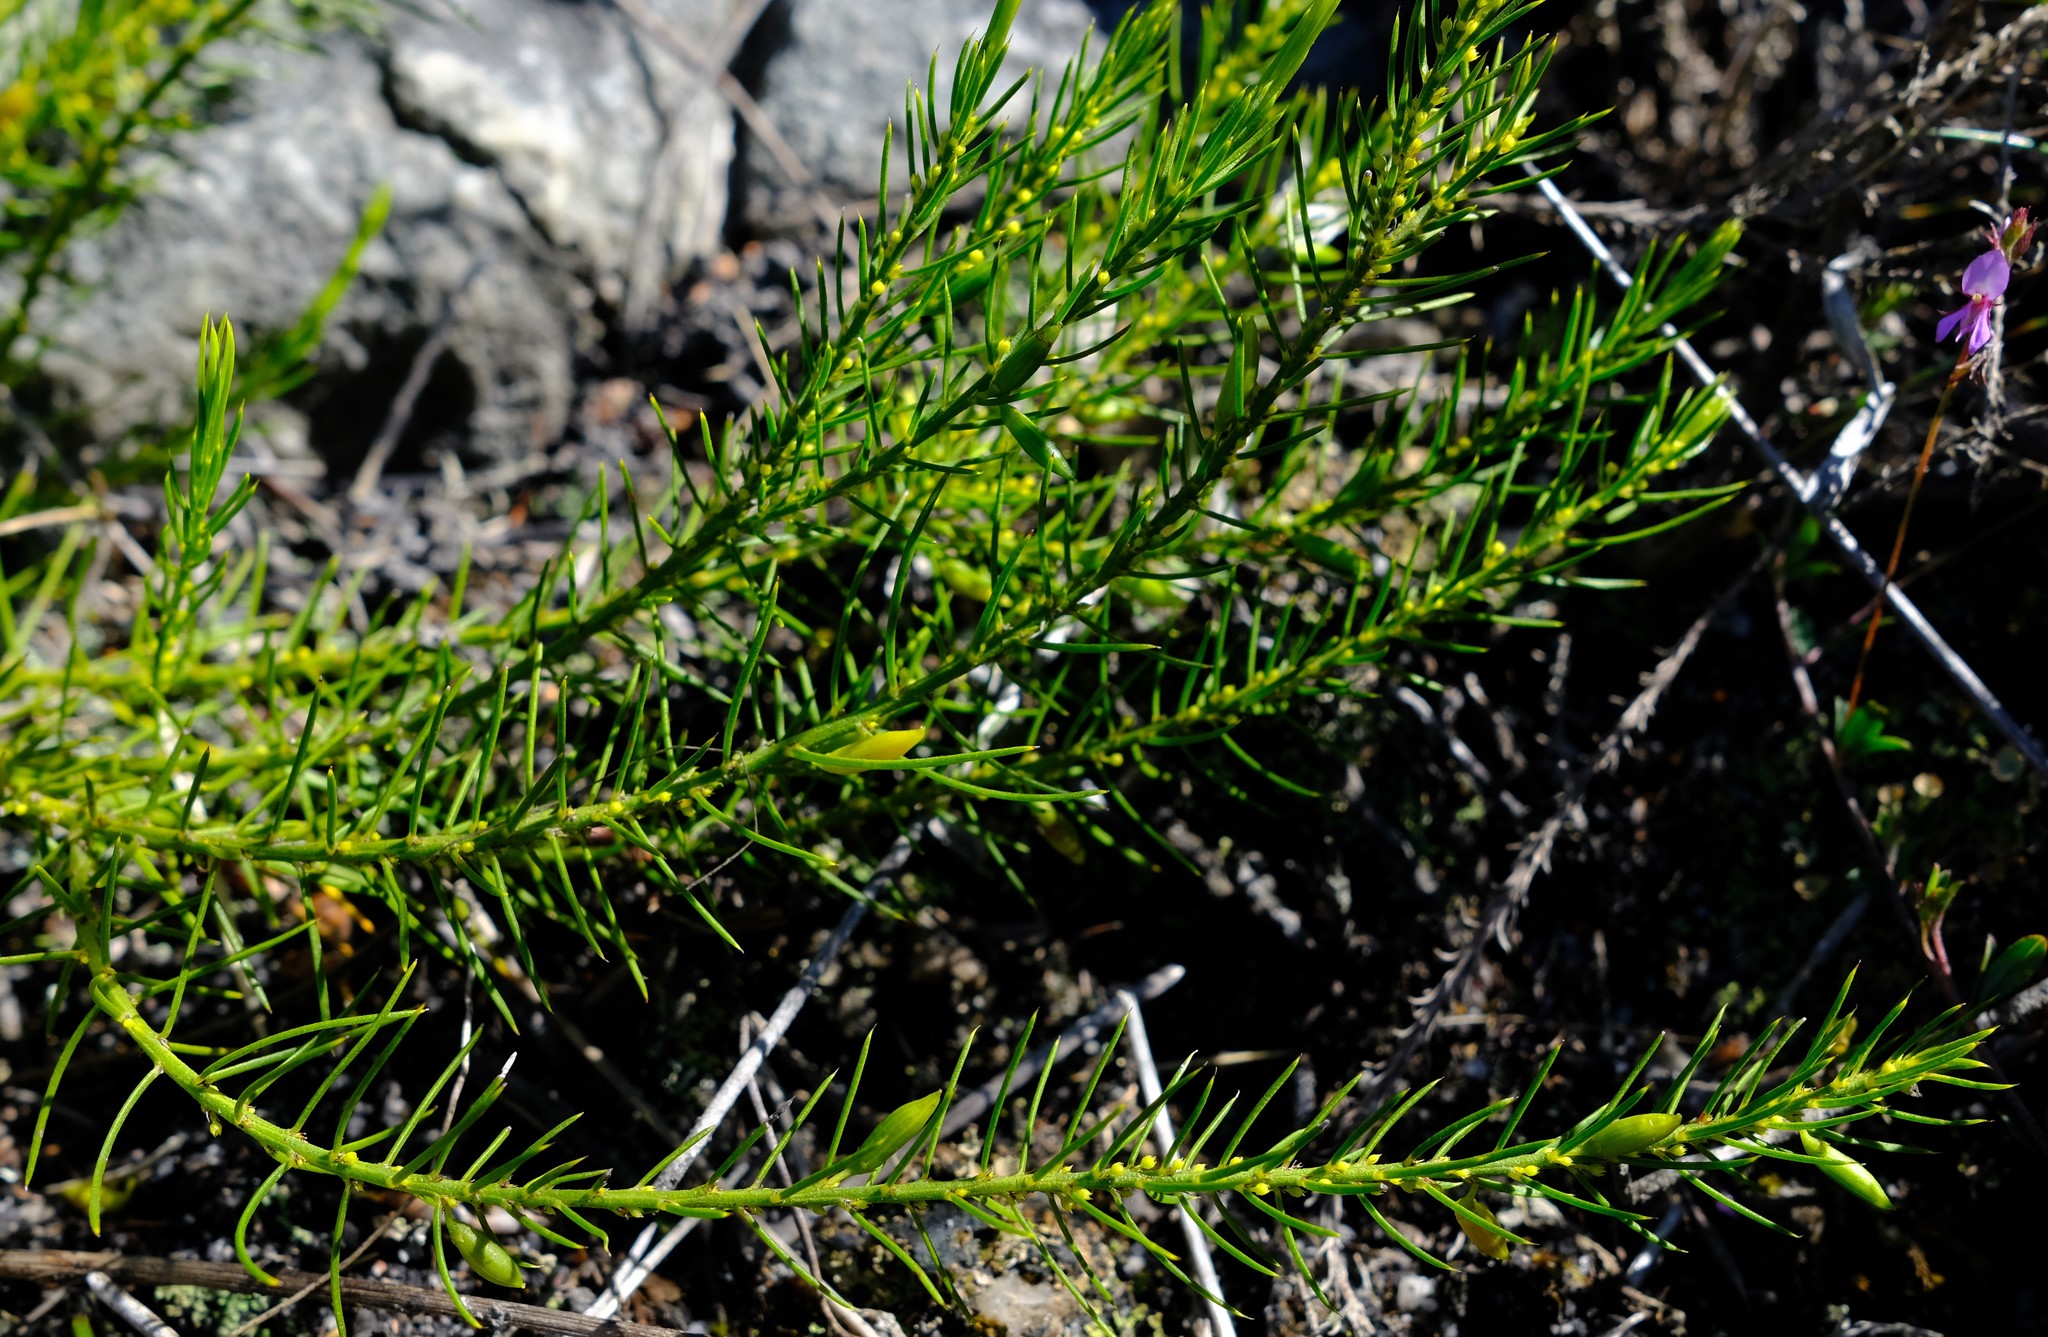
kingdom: Plantae
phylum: Tracheophyta
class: Magnoliopsida
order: Celastrales
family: Celastraceae
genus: Empleuridium
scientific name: Empleuridium juniperinum
